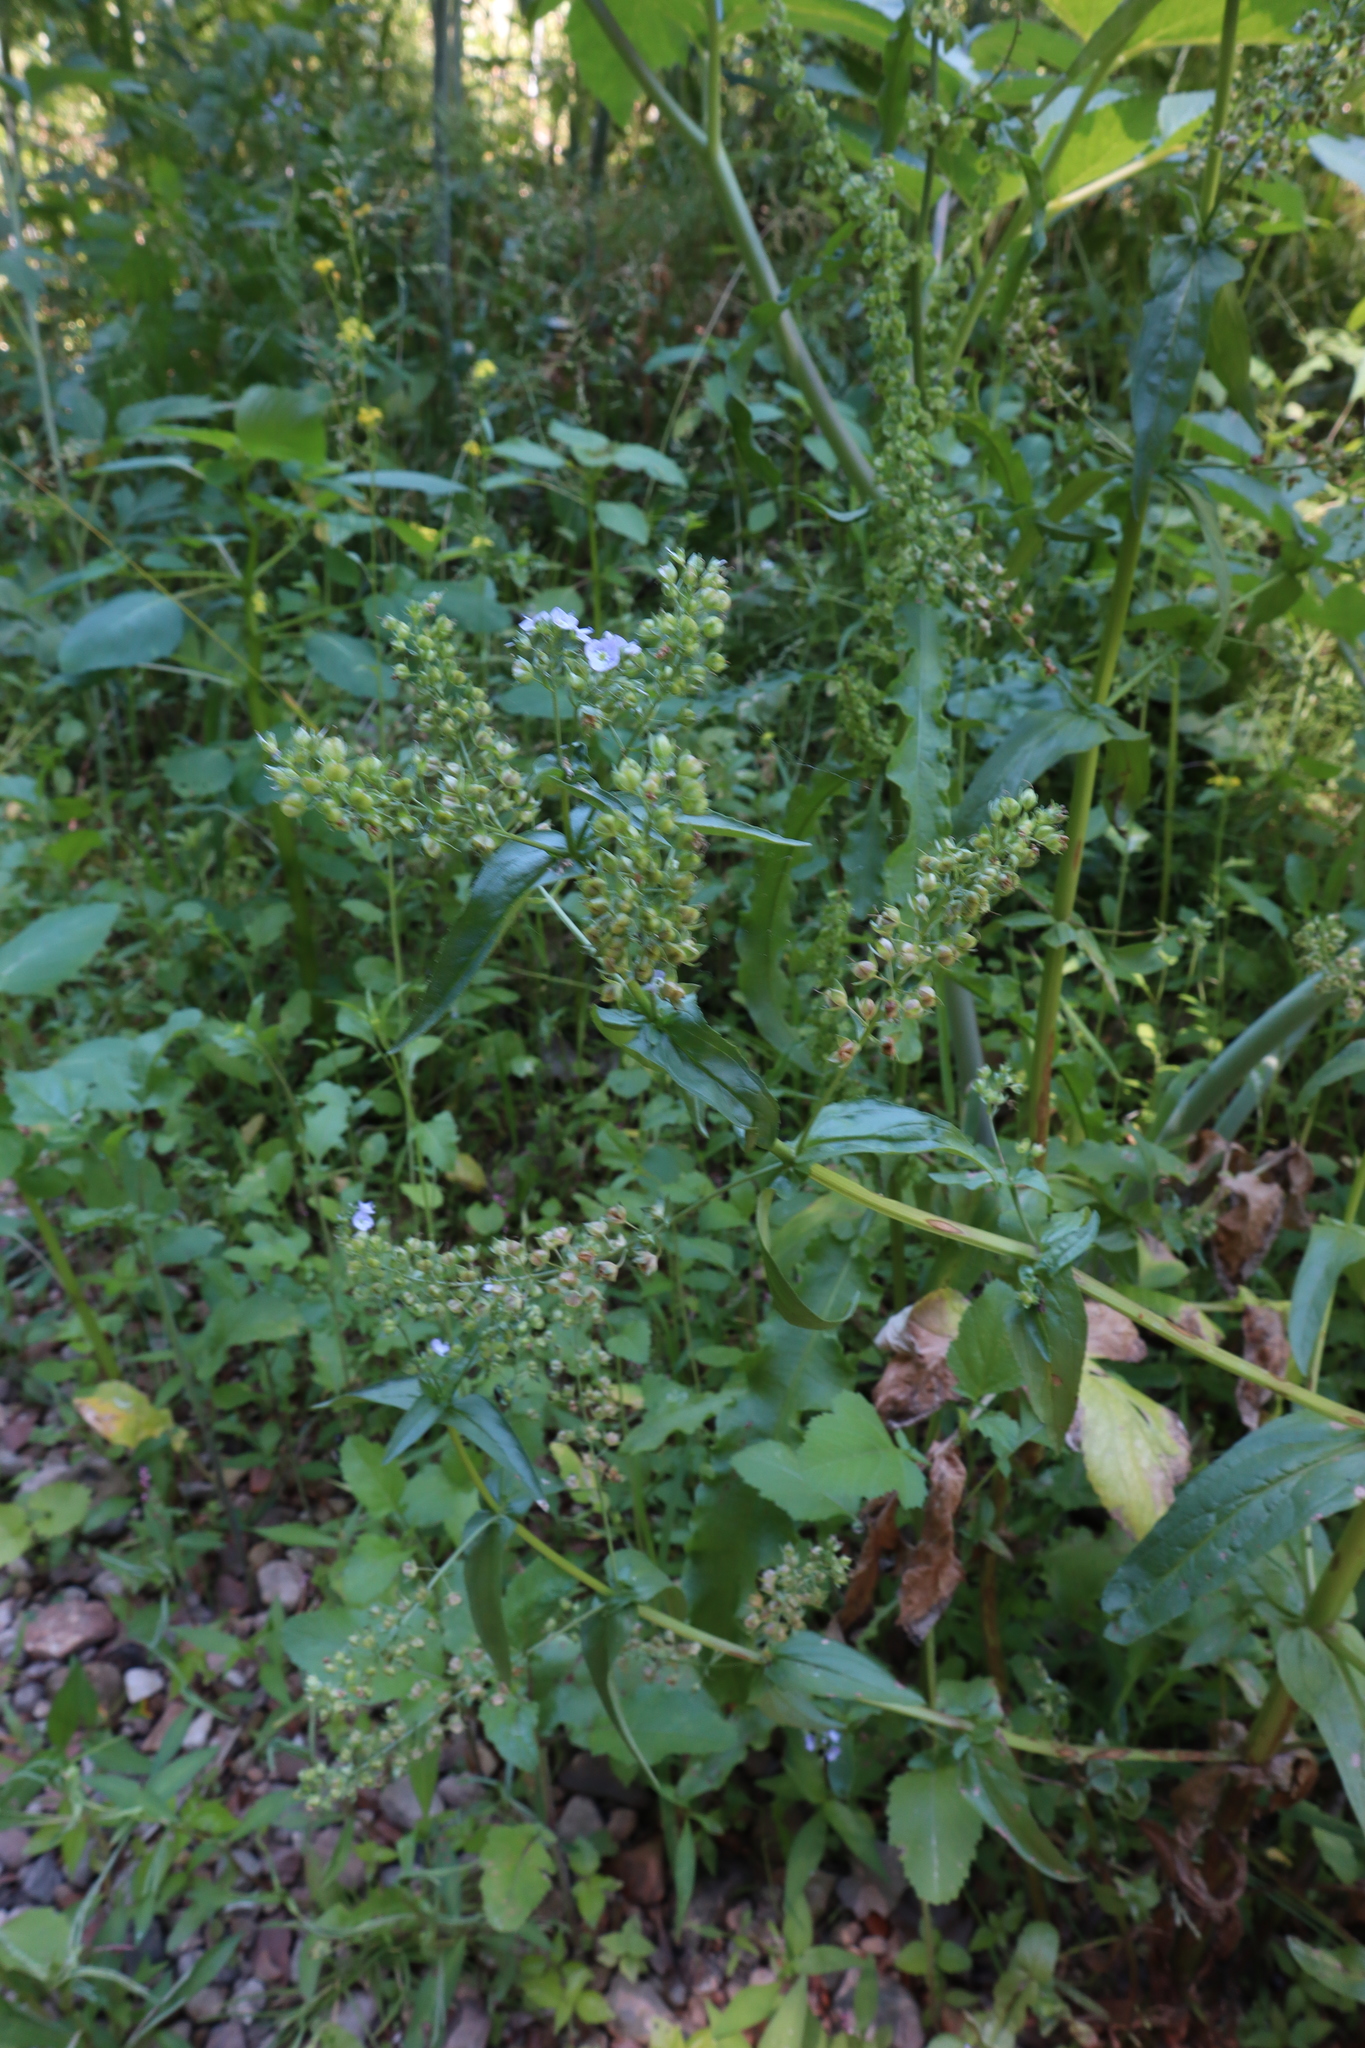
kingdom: Plantae
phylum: Tracheophyta
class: Magnoliopsida
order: Lamiales
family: Plantaginaceae
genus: Veronica
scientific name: Veronica anagallis-aquatica
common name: Water speedwell
